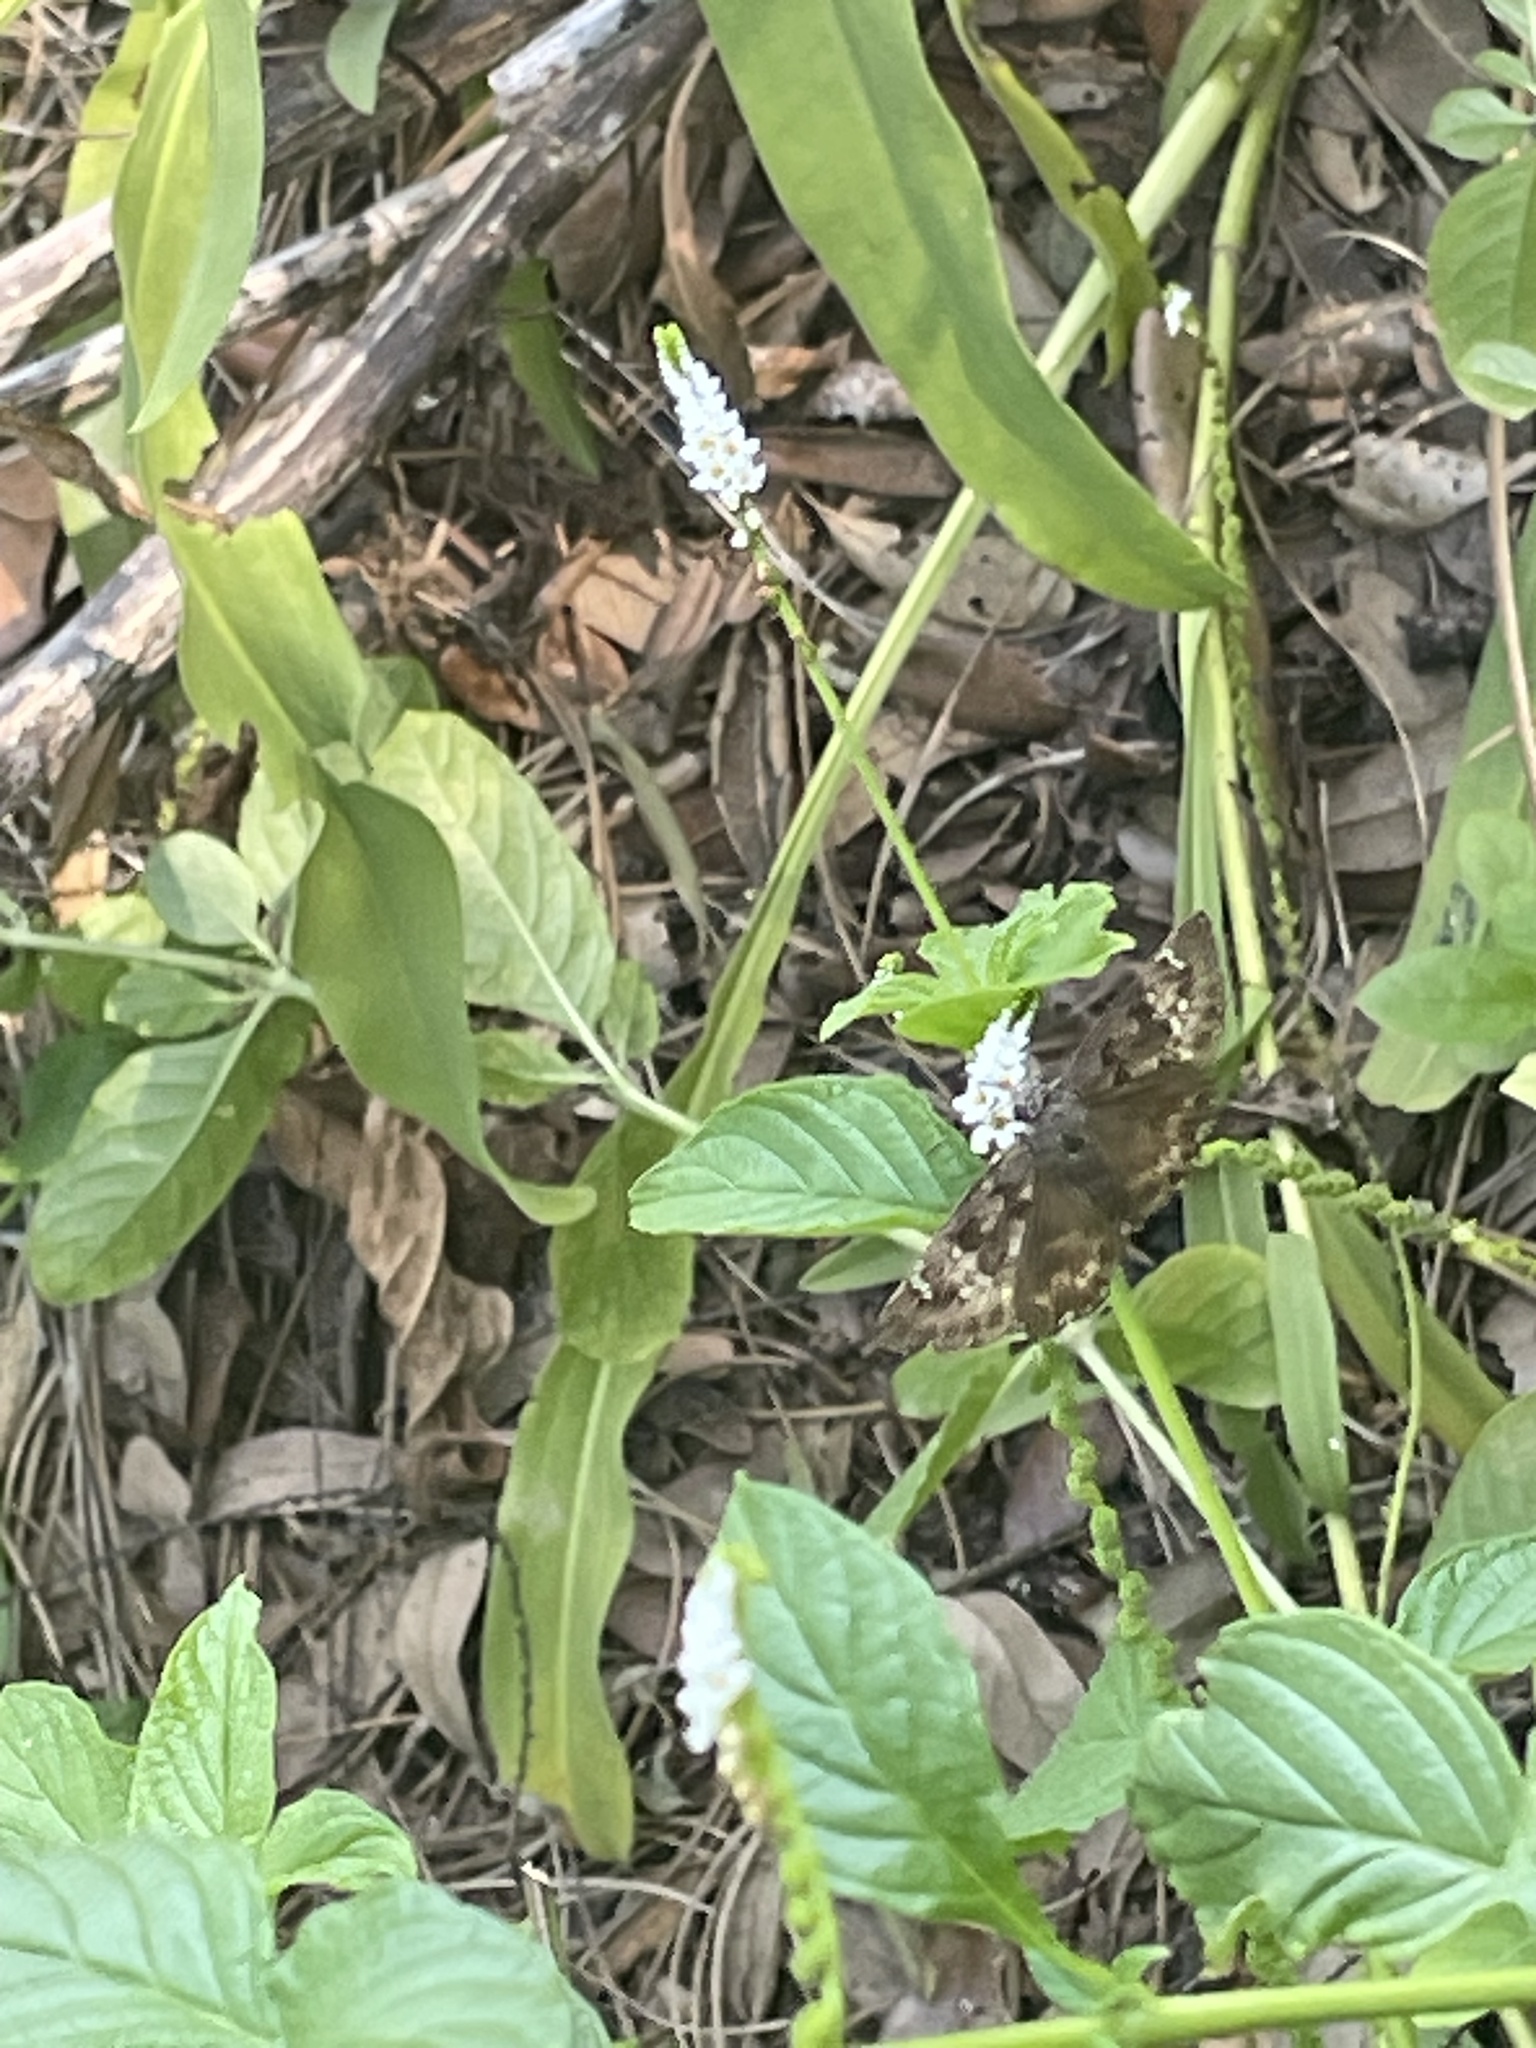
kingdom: Animalia
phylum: Arthropoda
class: Insecta
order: Lepidoptera
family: Hesperiidae
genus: Erynnis
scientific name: Erynnis horatius
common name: Horace's duskywing
